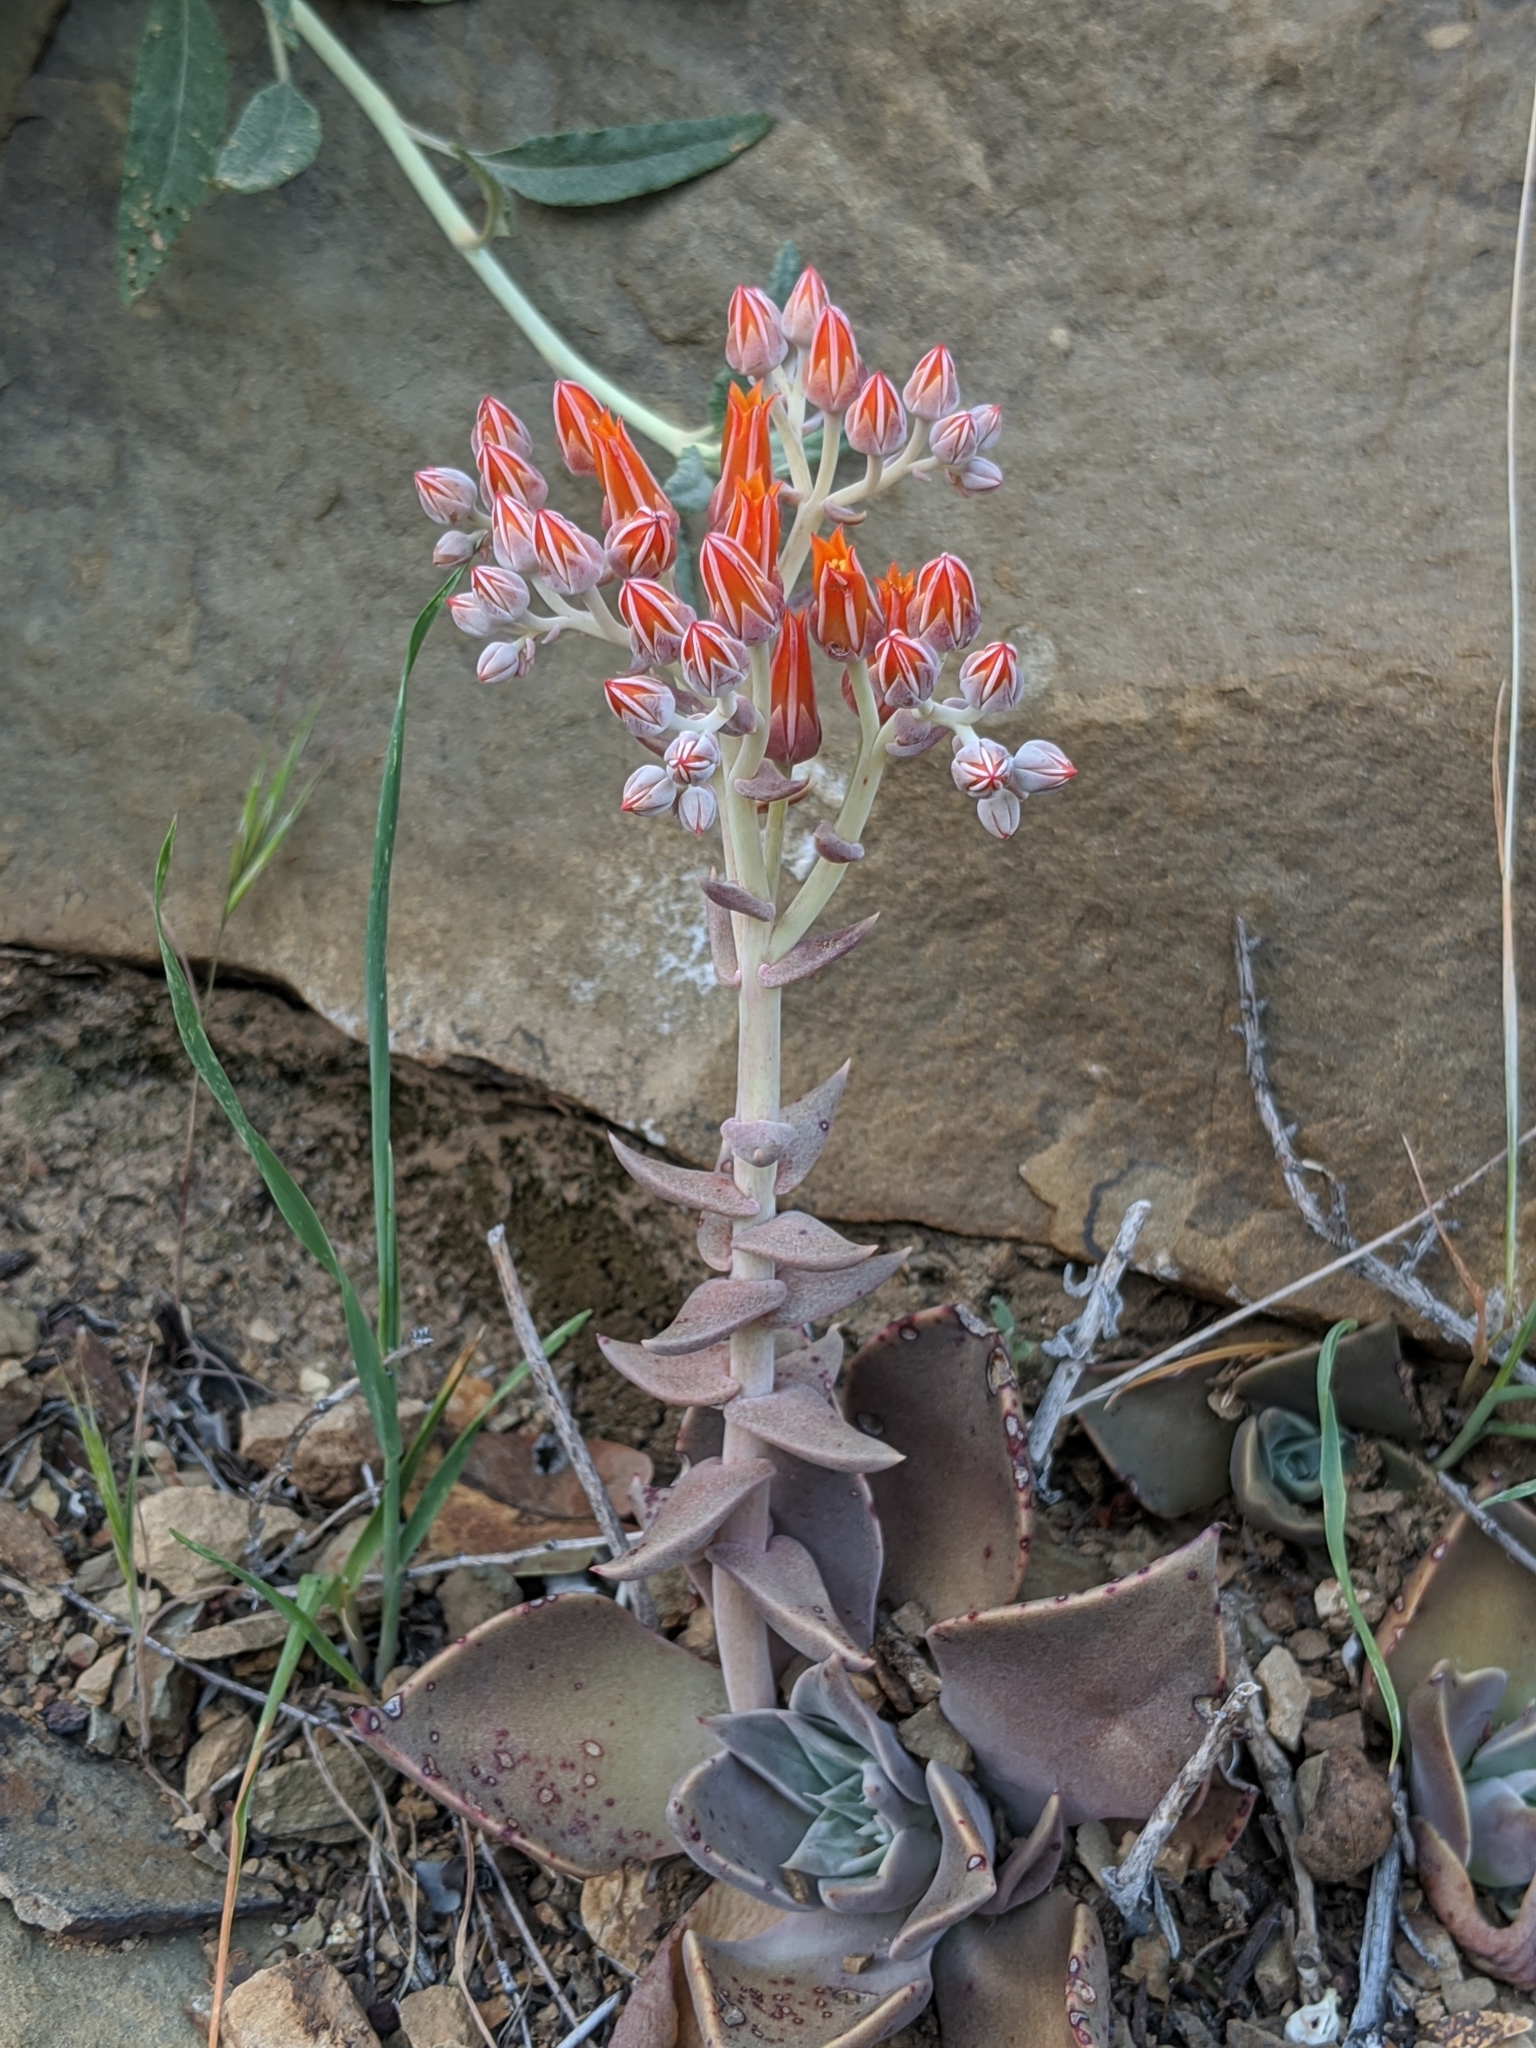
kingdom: Plantae
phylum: Tracheophyta
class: Magnoliopsida
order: Saxifragales
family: Crassulaceae
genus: Dudleya
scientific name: Dudleya cymosa
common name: Canyon dudleya
